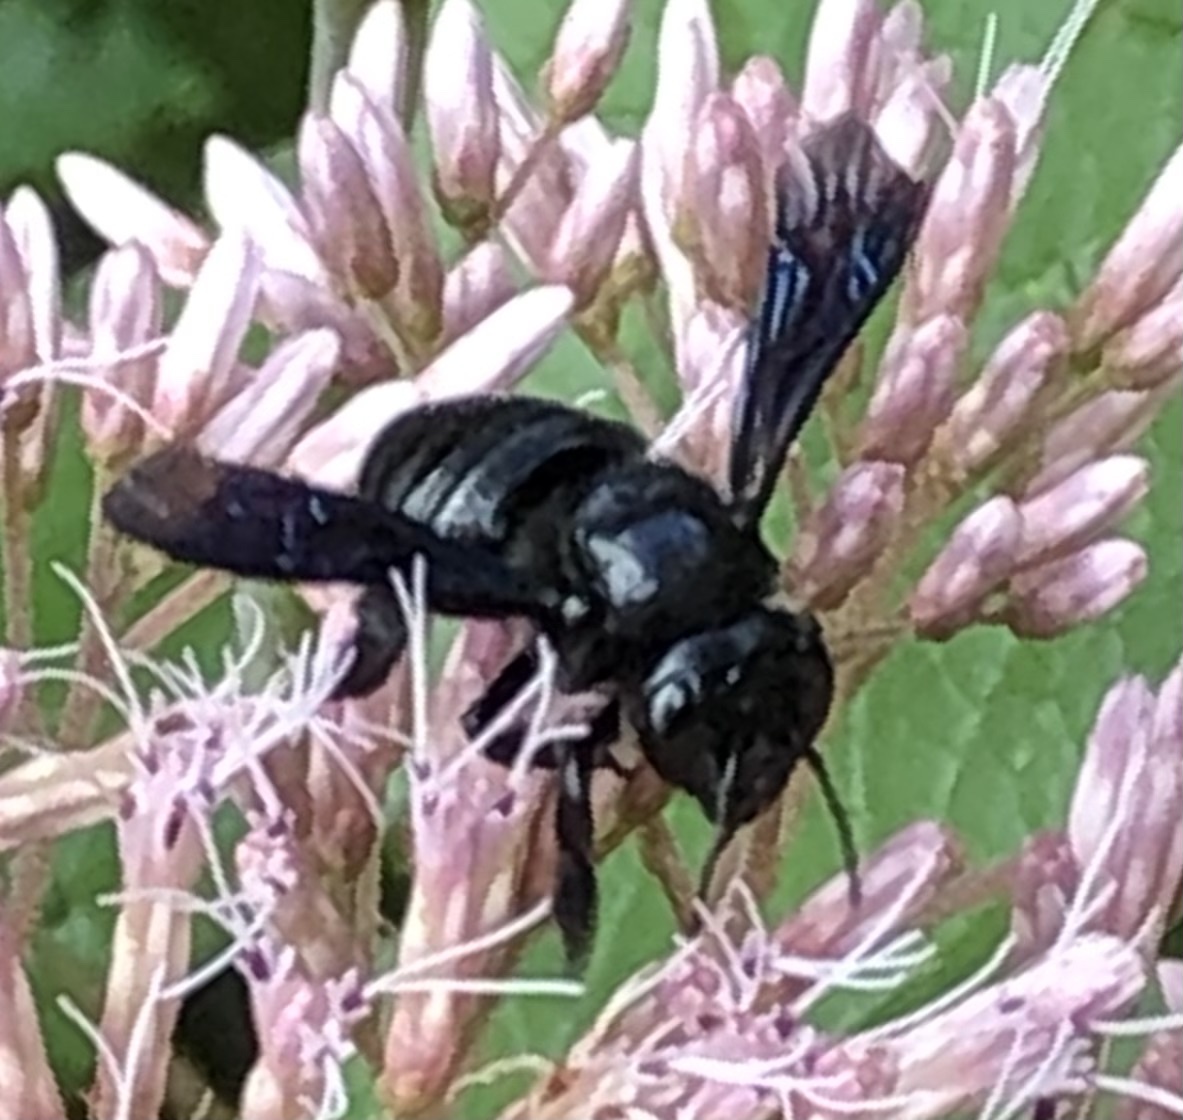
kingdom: Animalia
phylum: Arthropoda
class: Insecta
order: Hymenoptera
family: Megachilidae
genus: Megachile
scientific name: Megachile xylocopoides
